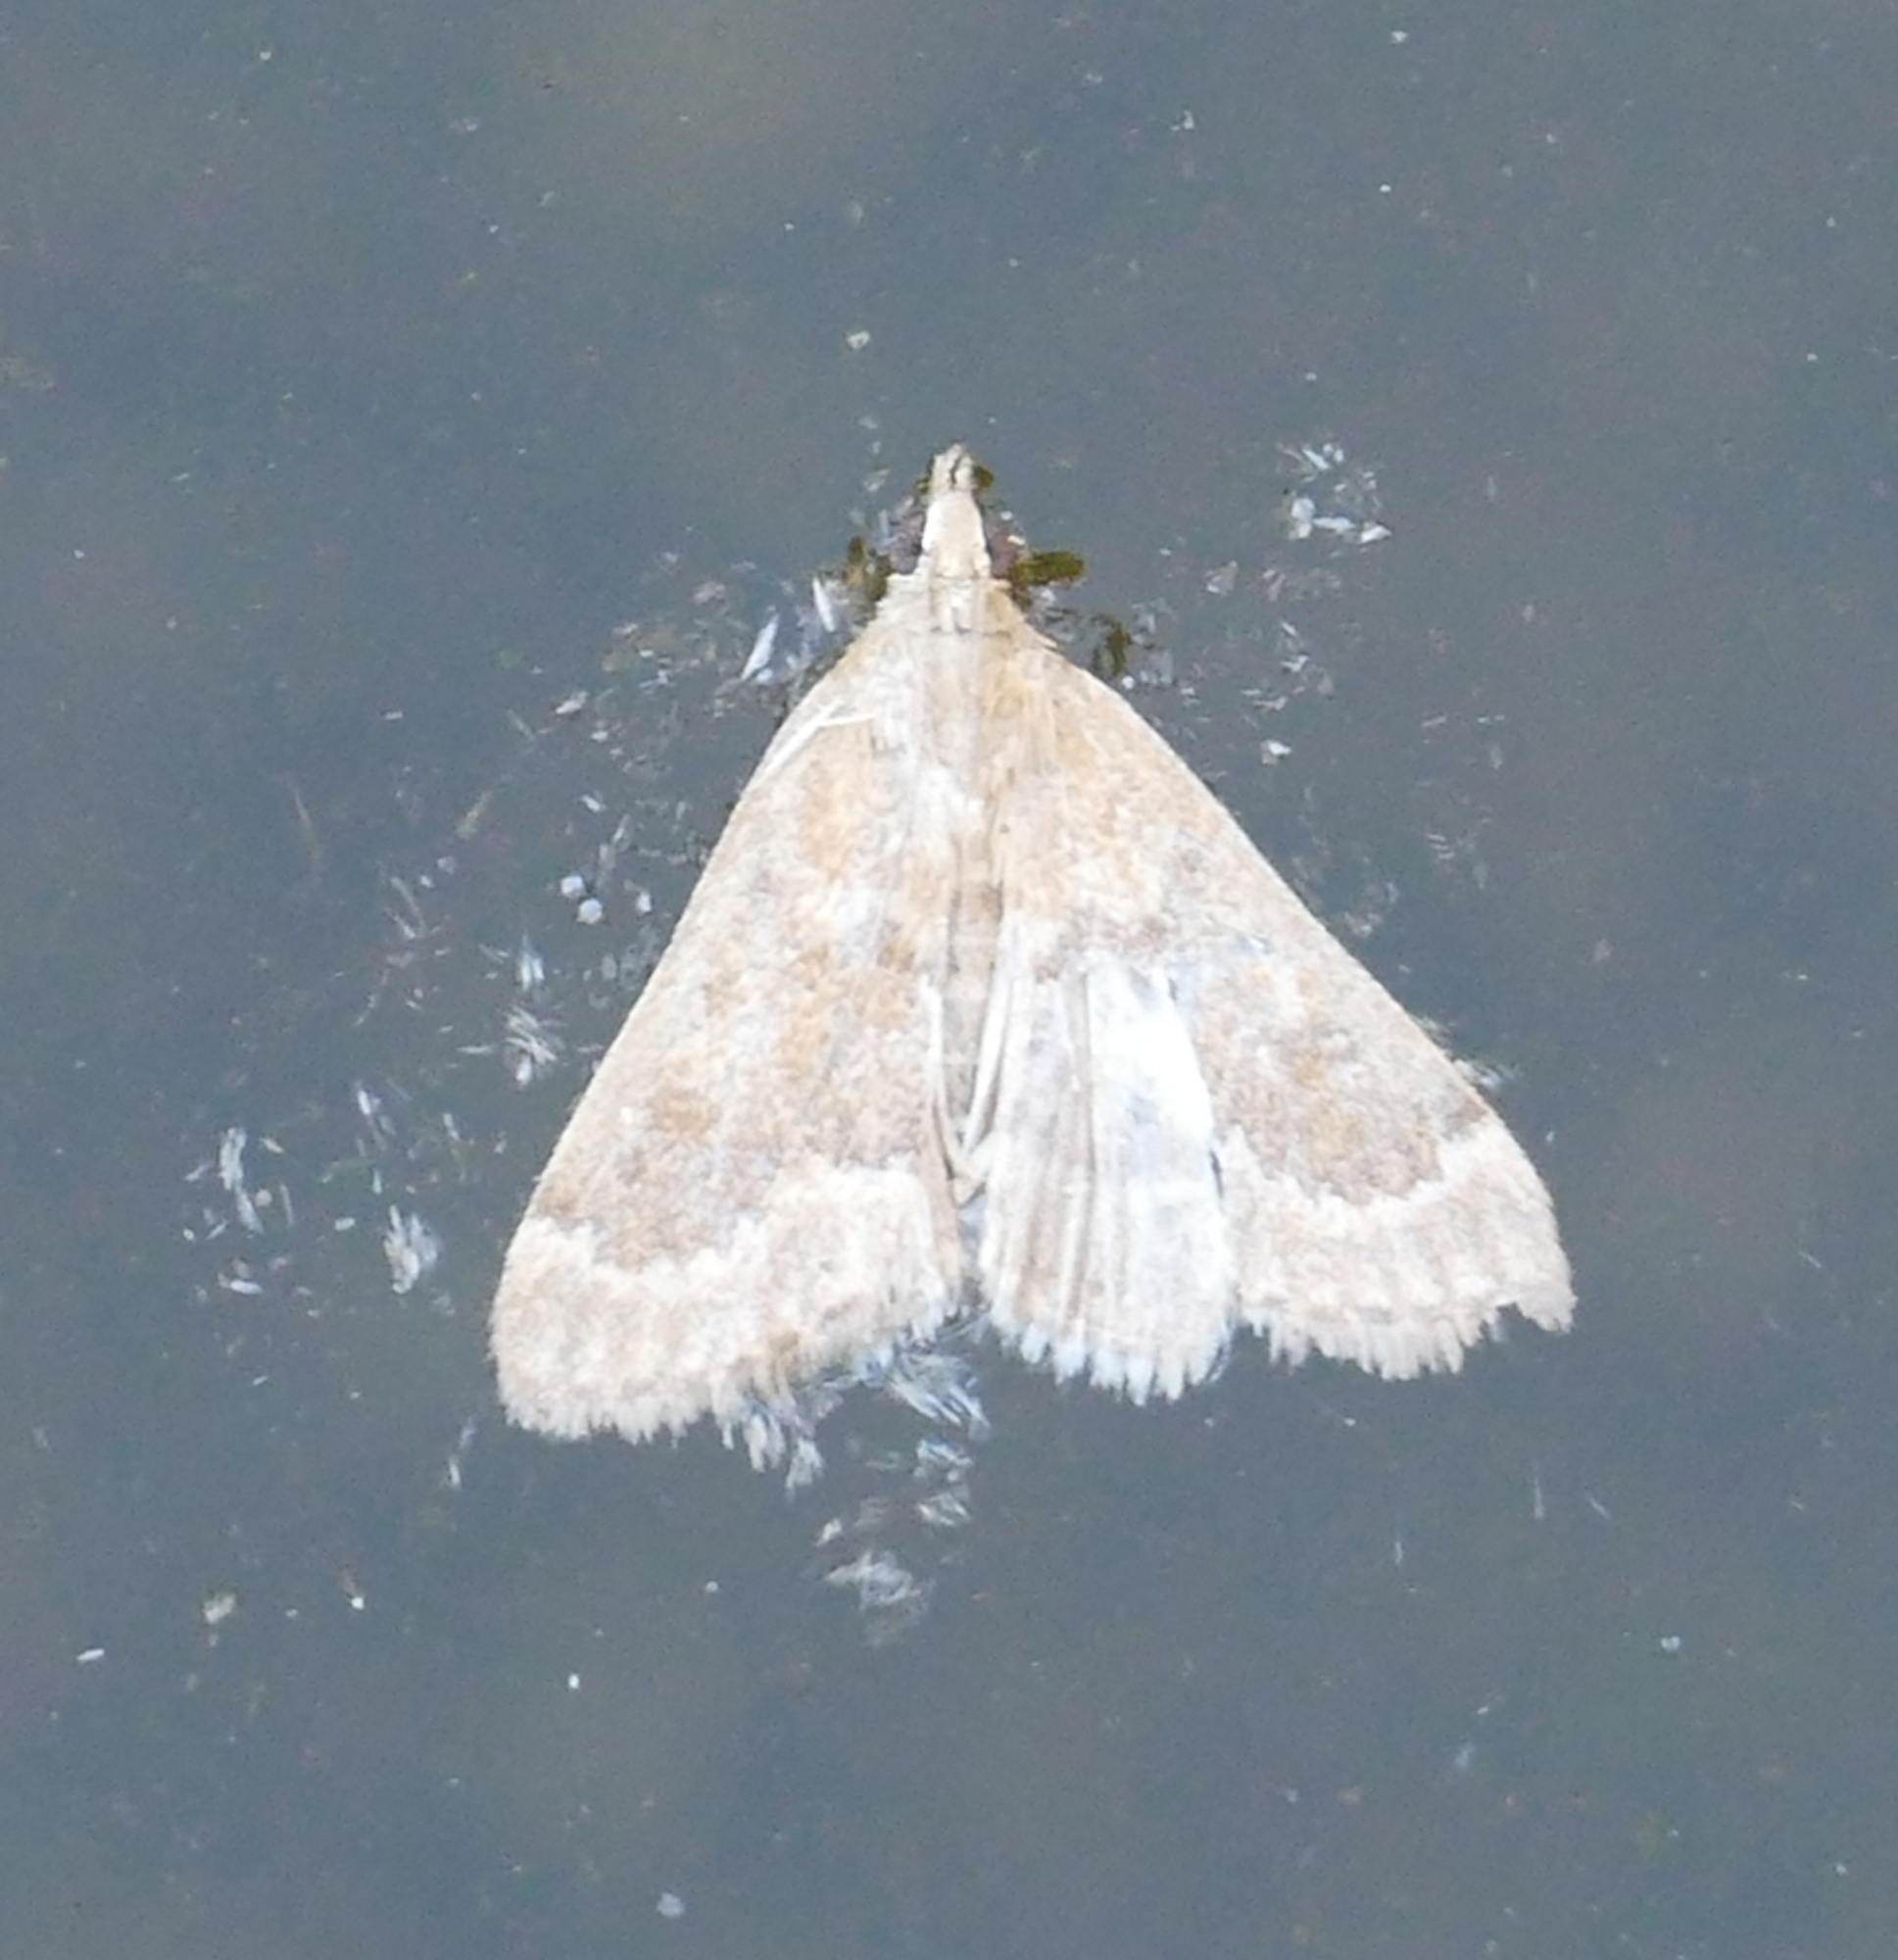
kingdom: Animalia
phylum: Arthropoda
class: Insecta
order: Lepidoptera
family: Crambidae
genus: Achyra
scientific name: Achyra rantalis
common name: Garden webworm
